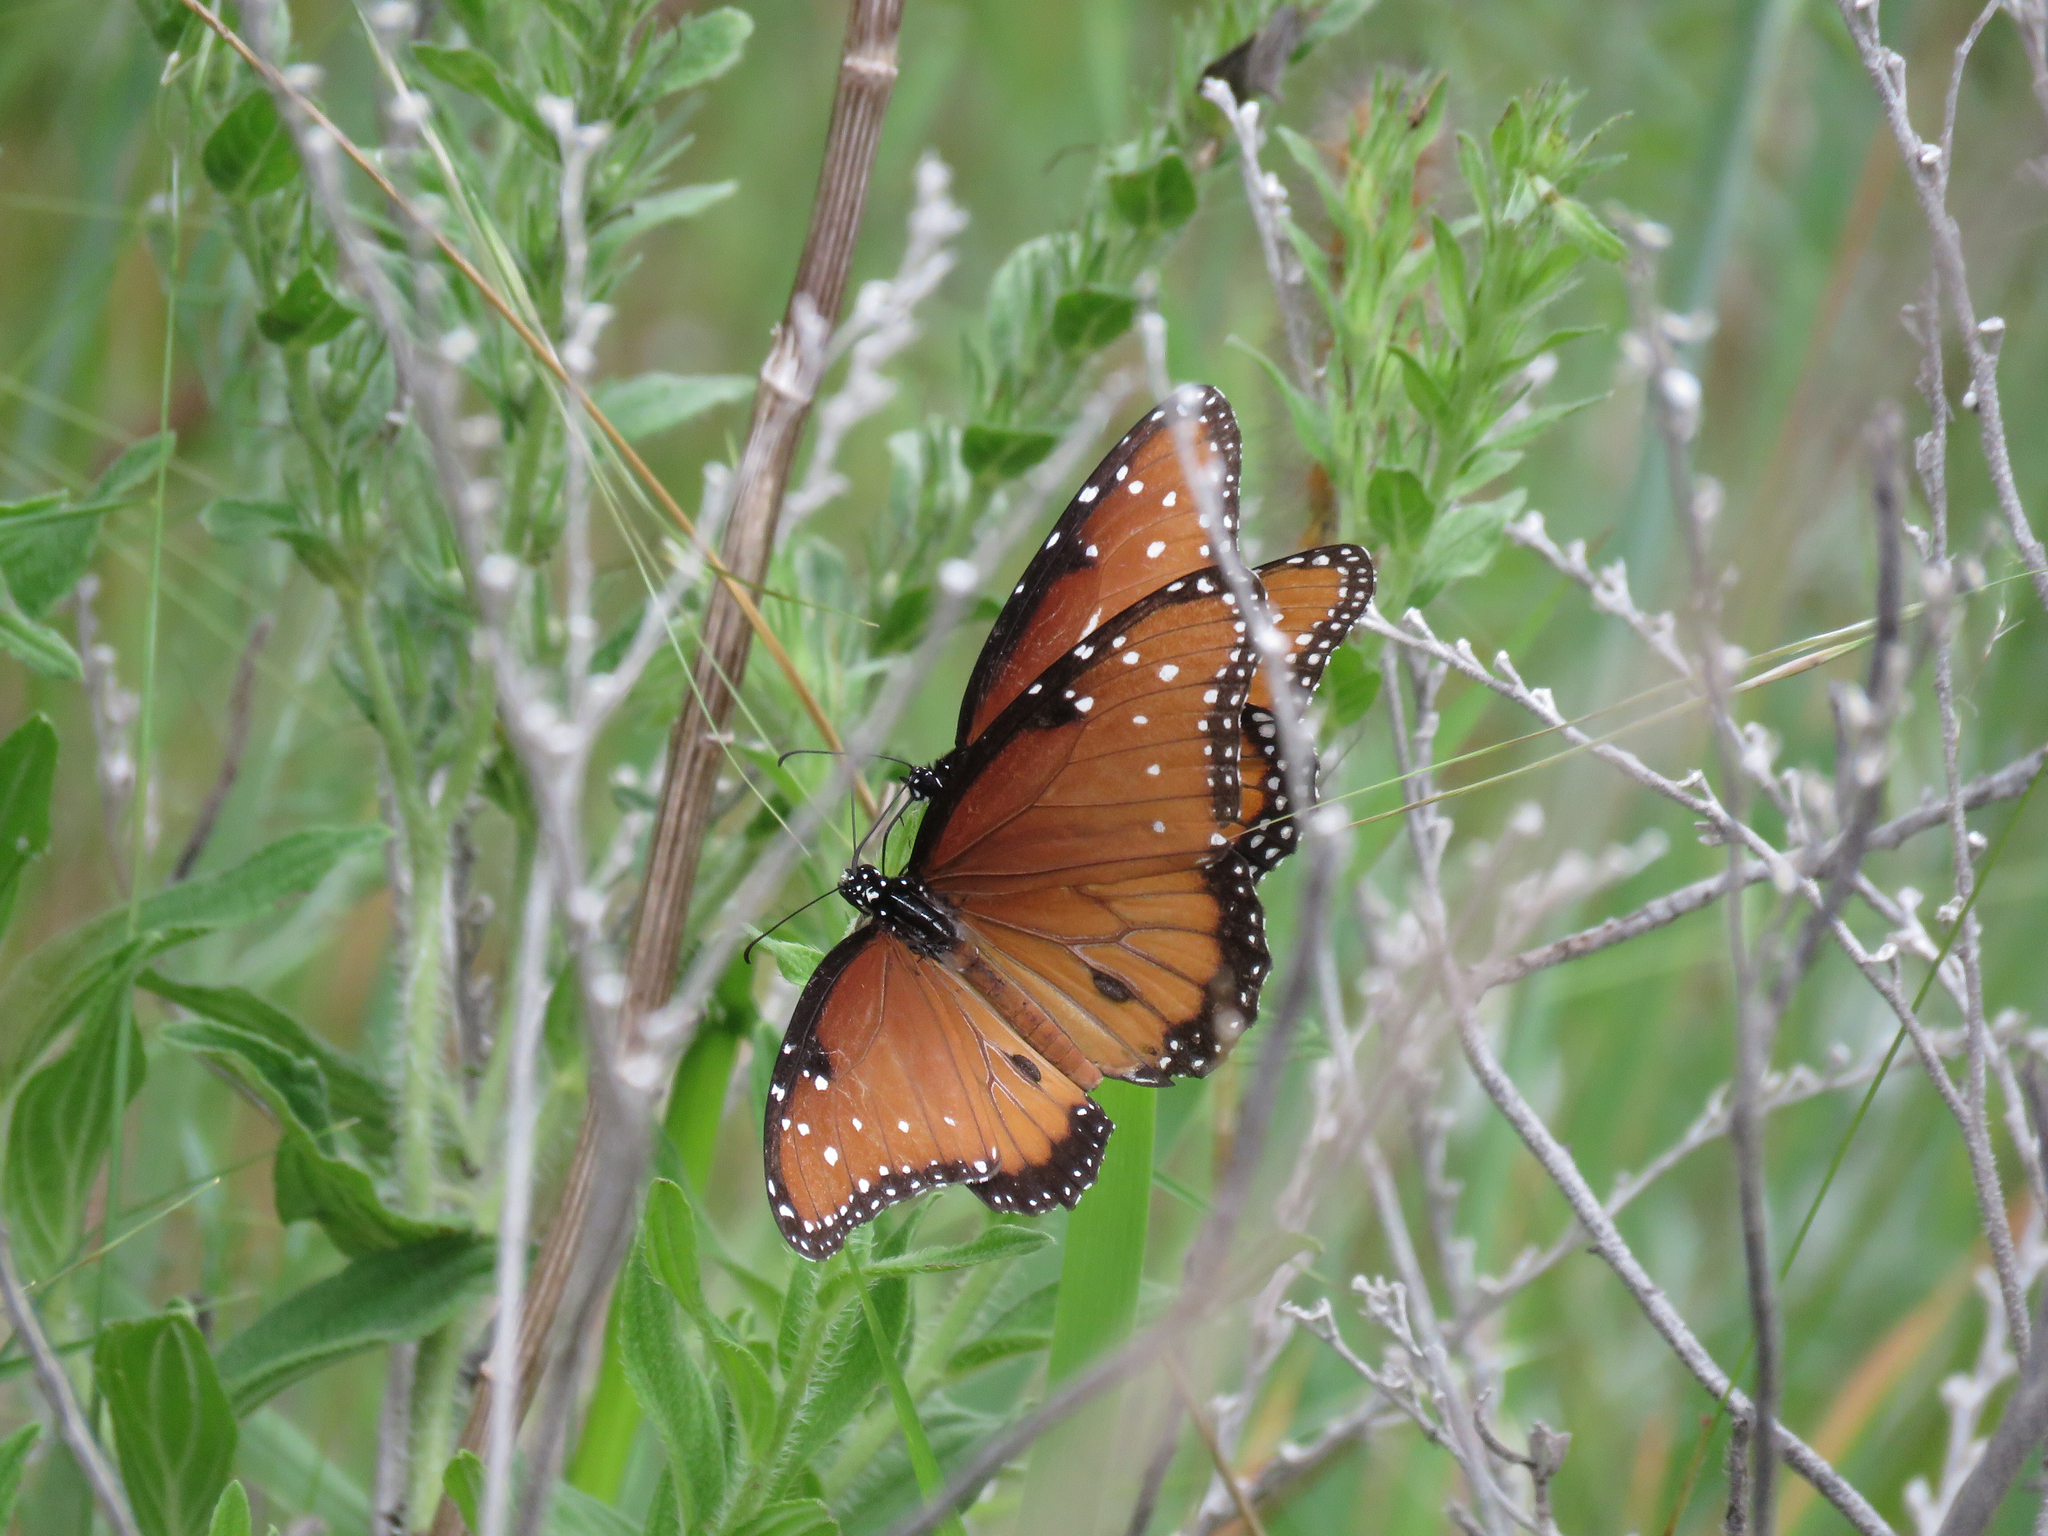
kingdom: Animalia
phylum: Arthropoda
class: Insecta
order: Lepidoptera
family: Nymphalidae
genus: Danaus
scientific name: Danaus gilippus
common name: Queen
